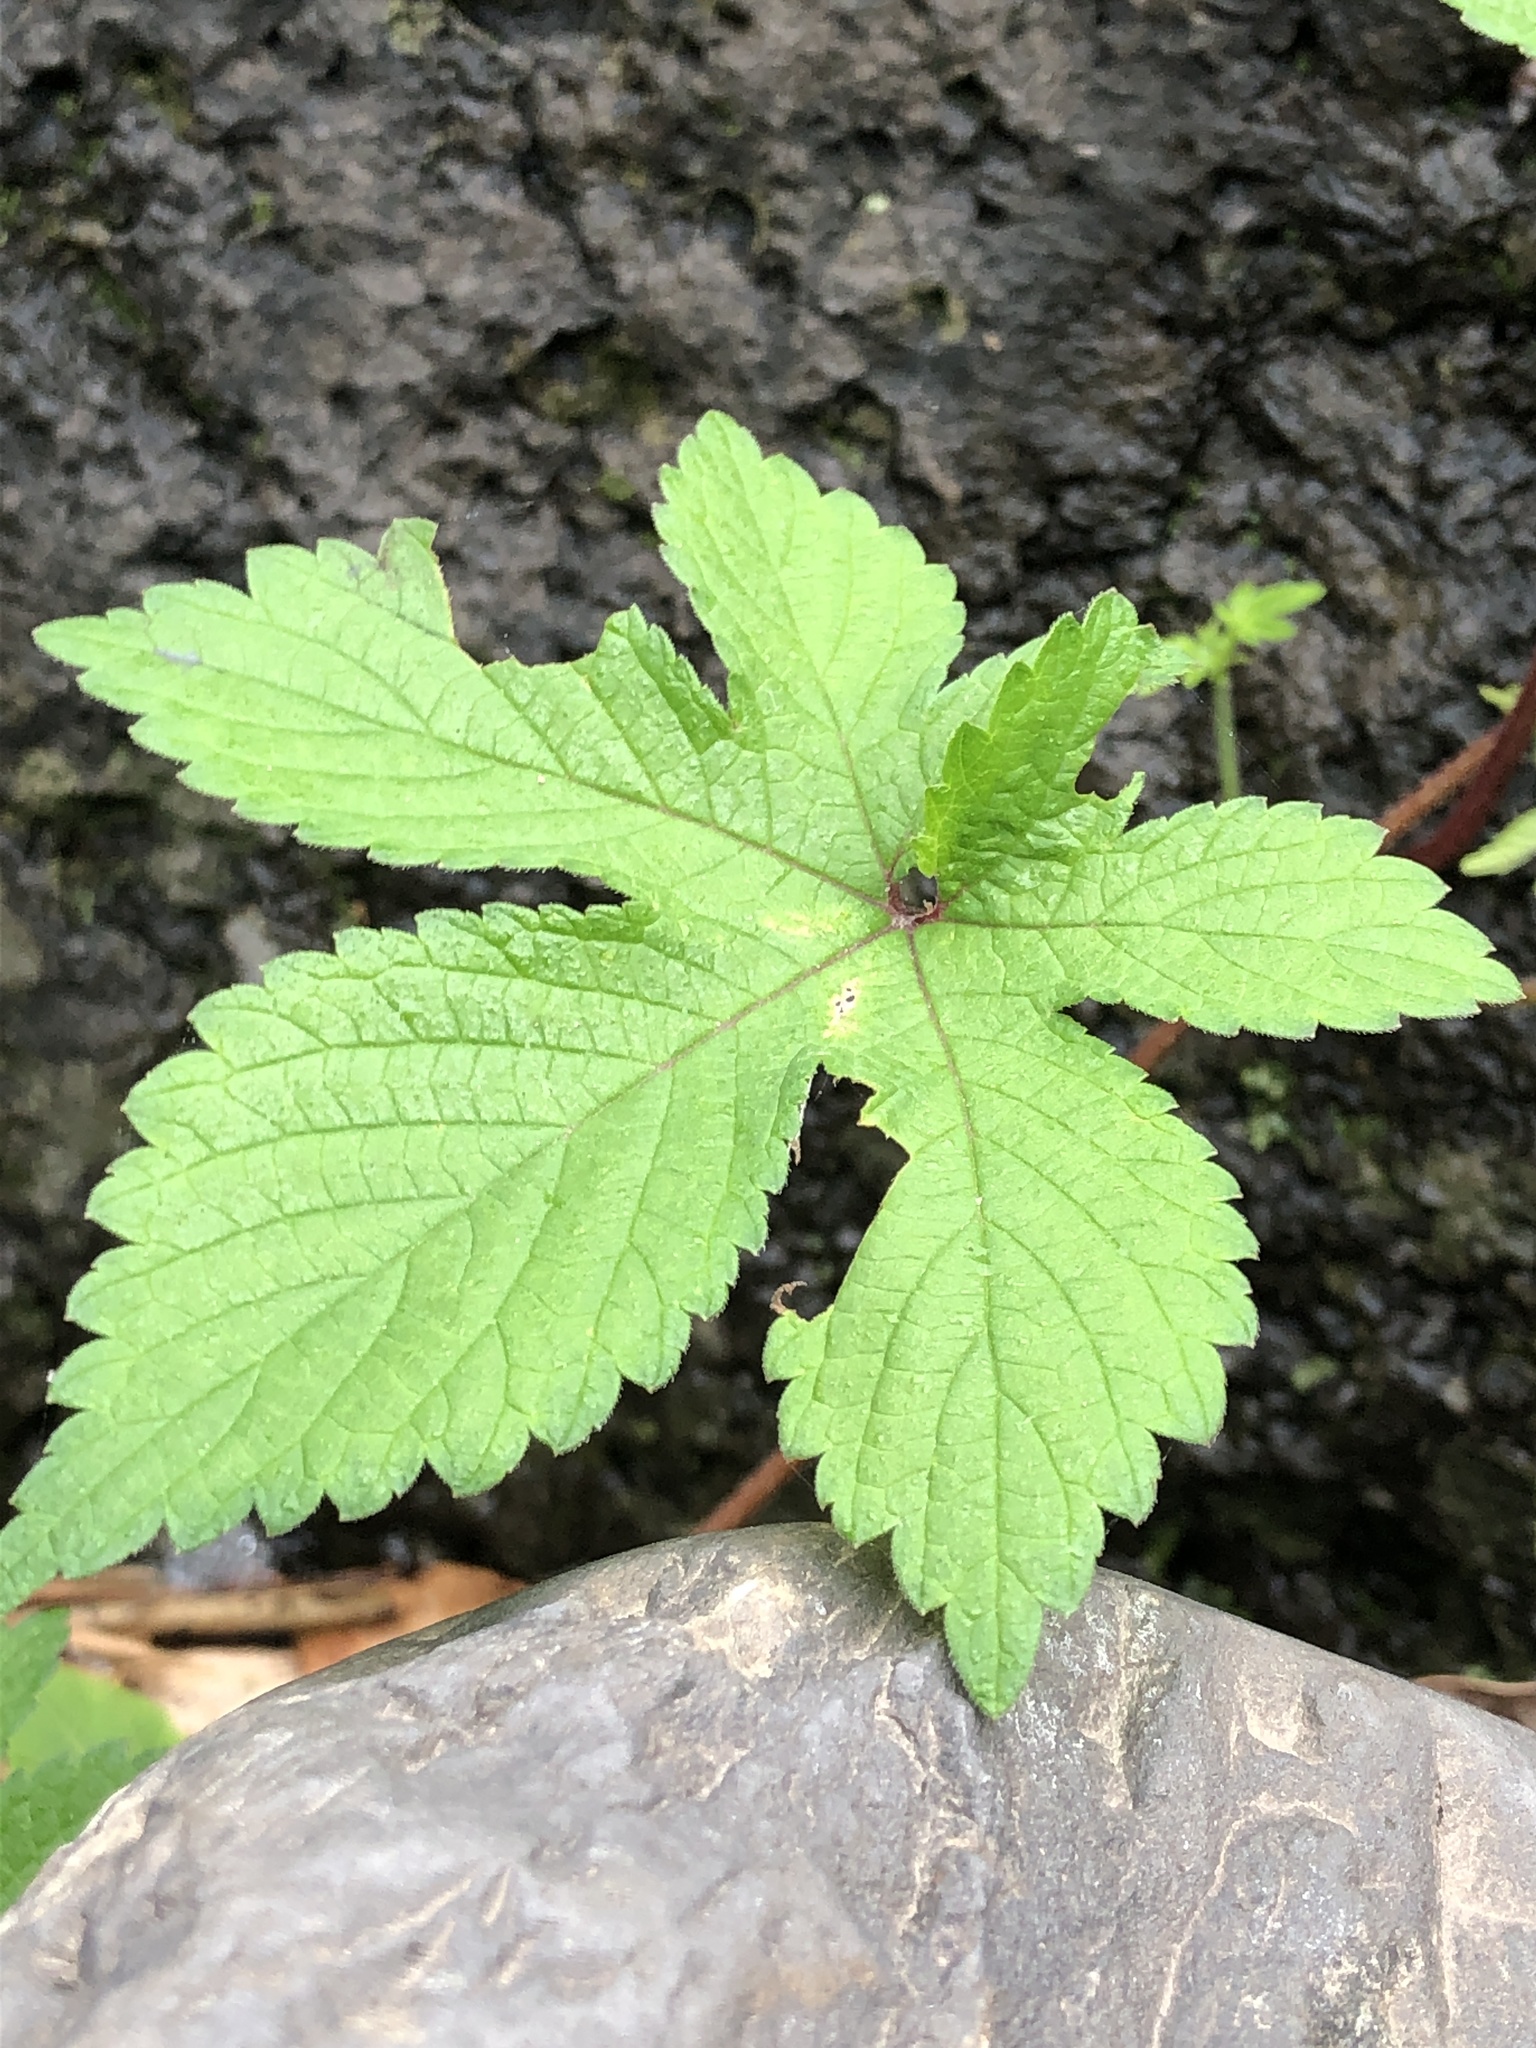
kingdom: Plantae
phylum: Tracheophyta
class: Magnoliopsida
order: Rosales
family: Cannabaceae
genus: Humulus
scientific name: Humulus scandens
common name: Japanese hop
